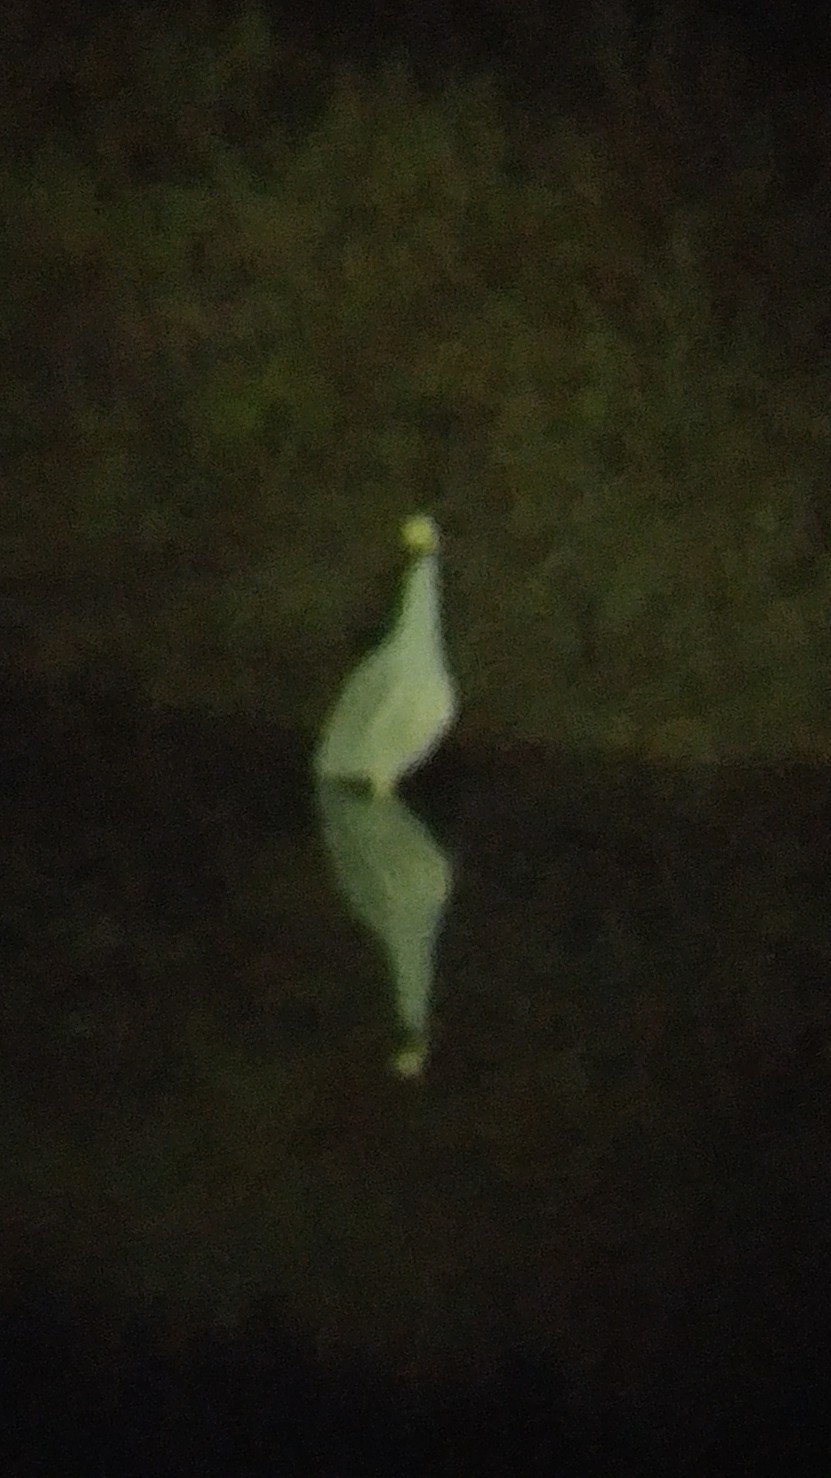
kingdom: Animalia
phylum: Chordata
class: Aves
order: Pelecaniformes
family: Ardeidae
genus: Nyctanassa
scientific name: Nyctanassa violacea
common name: Yellow-crowned night heron
